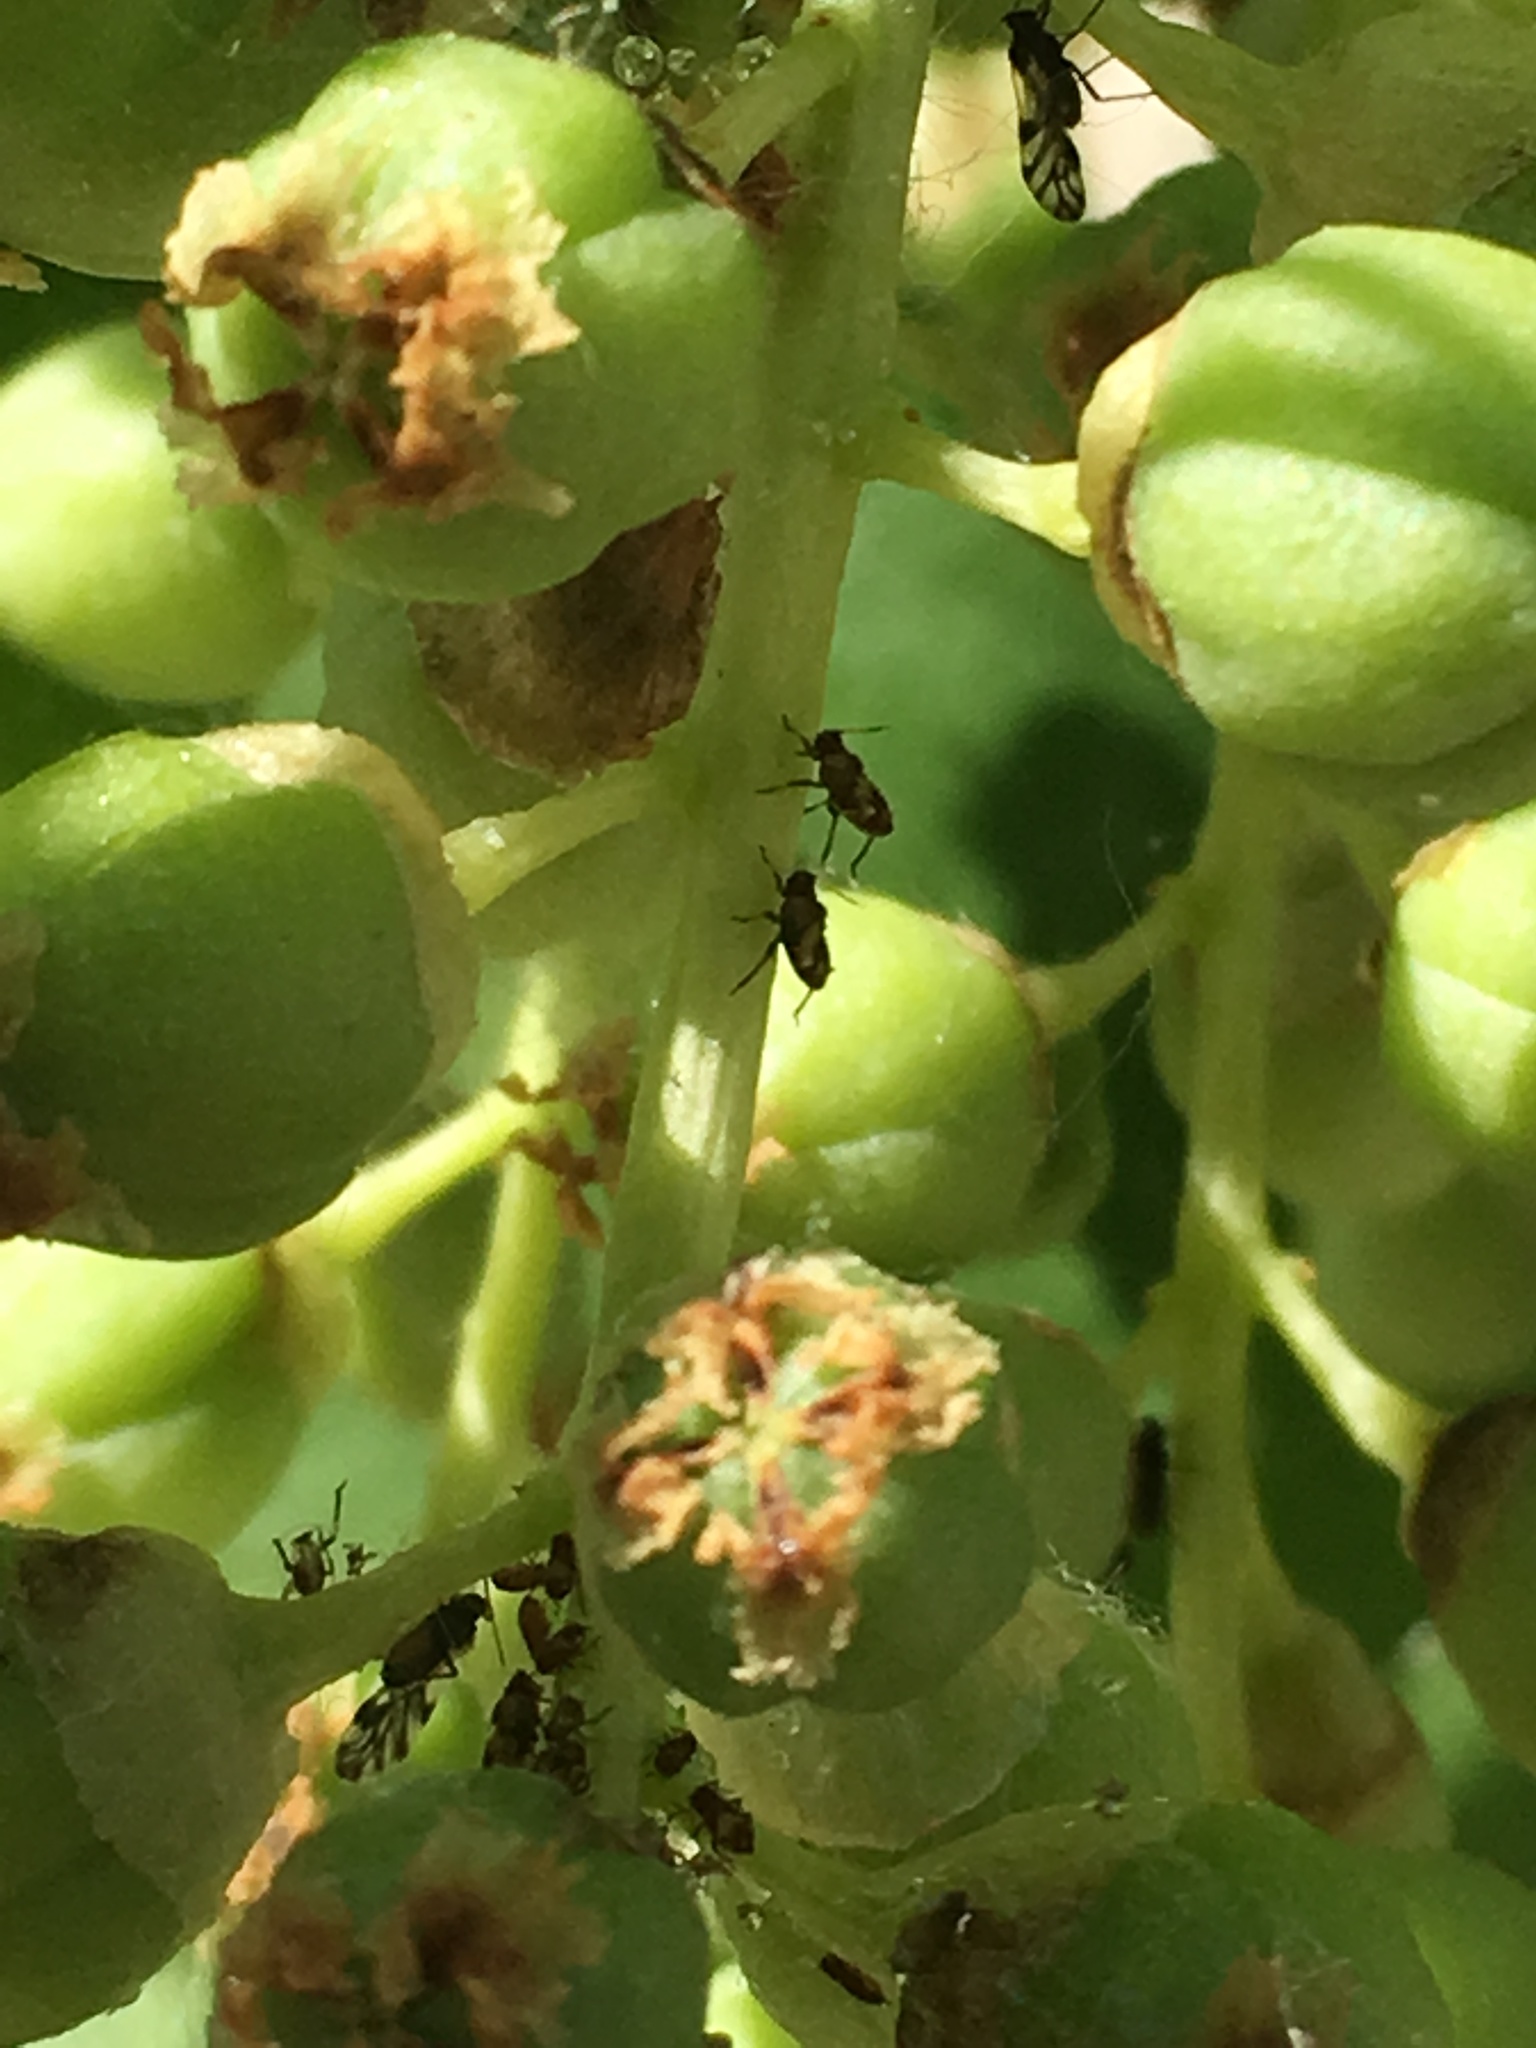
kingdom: Animalia
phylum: Arthropoda
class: Insecta
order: Hemiptera
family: Aphididae
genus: Chaitophorus
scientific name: Chaitophorus populicola
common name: Smokywinged poplar aphid
